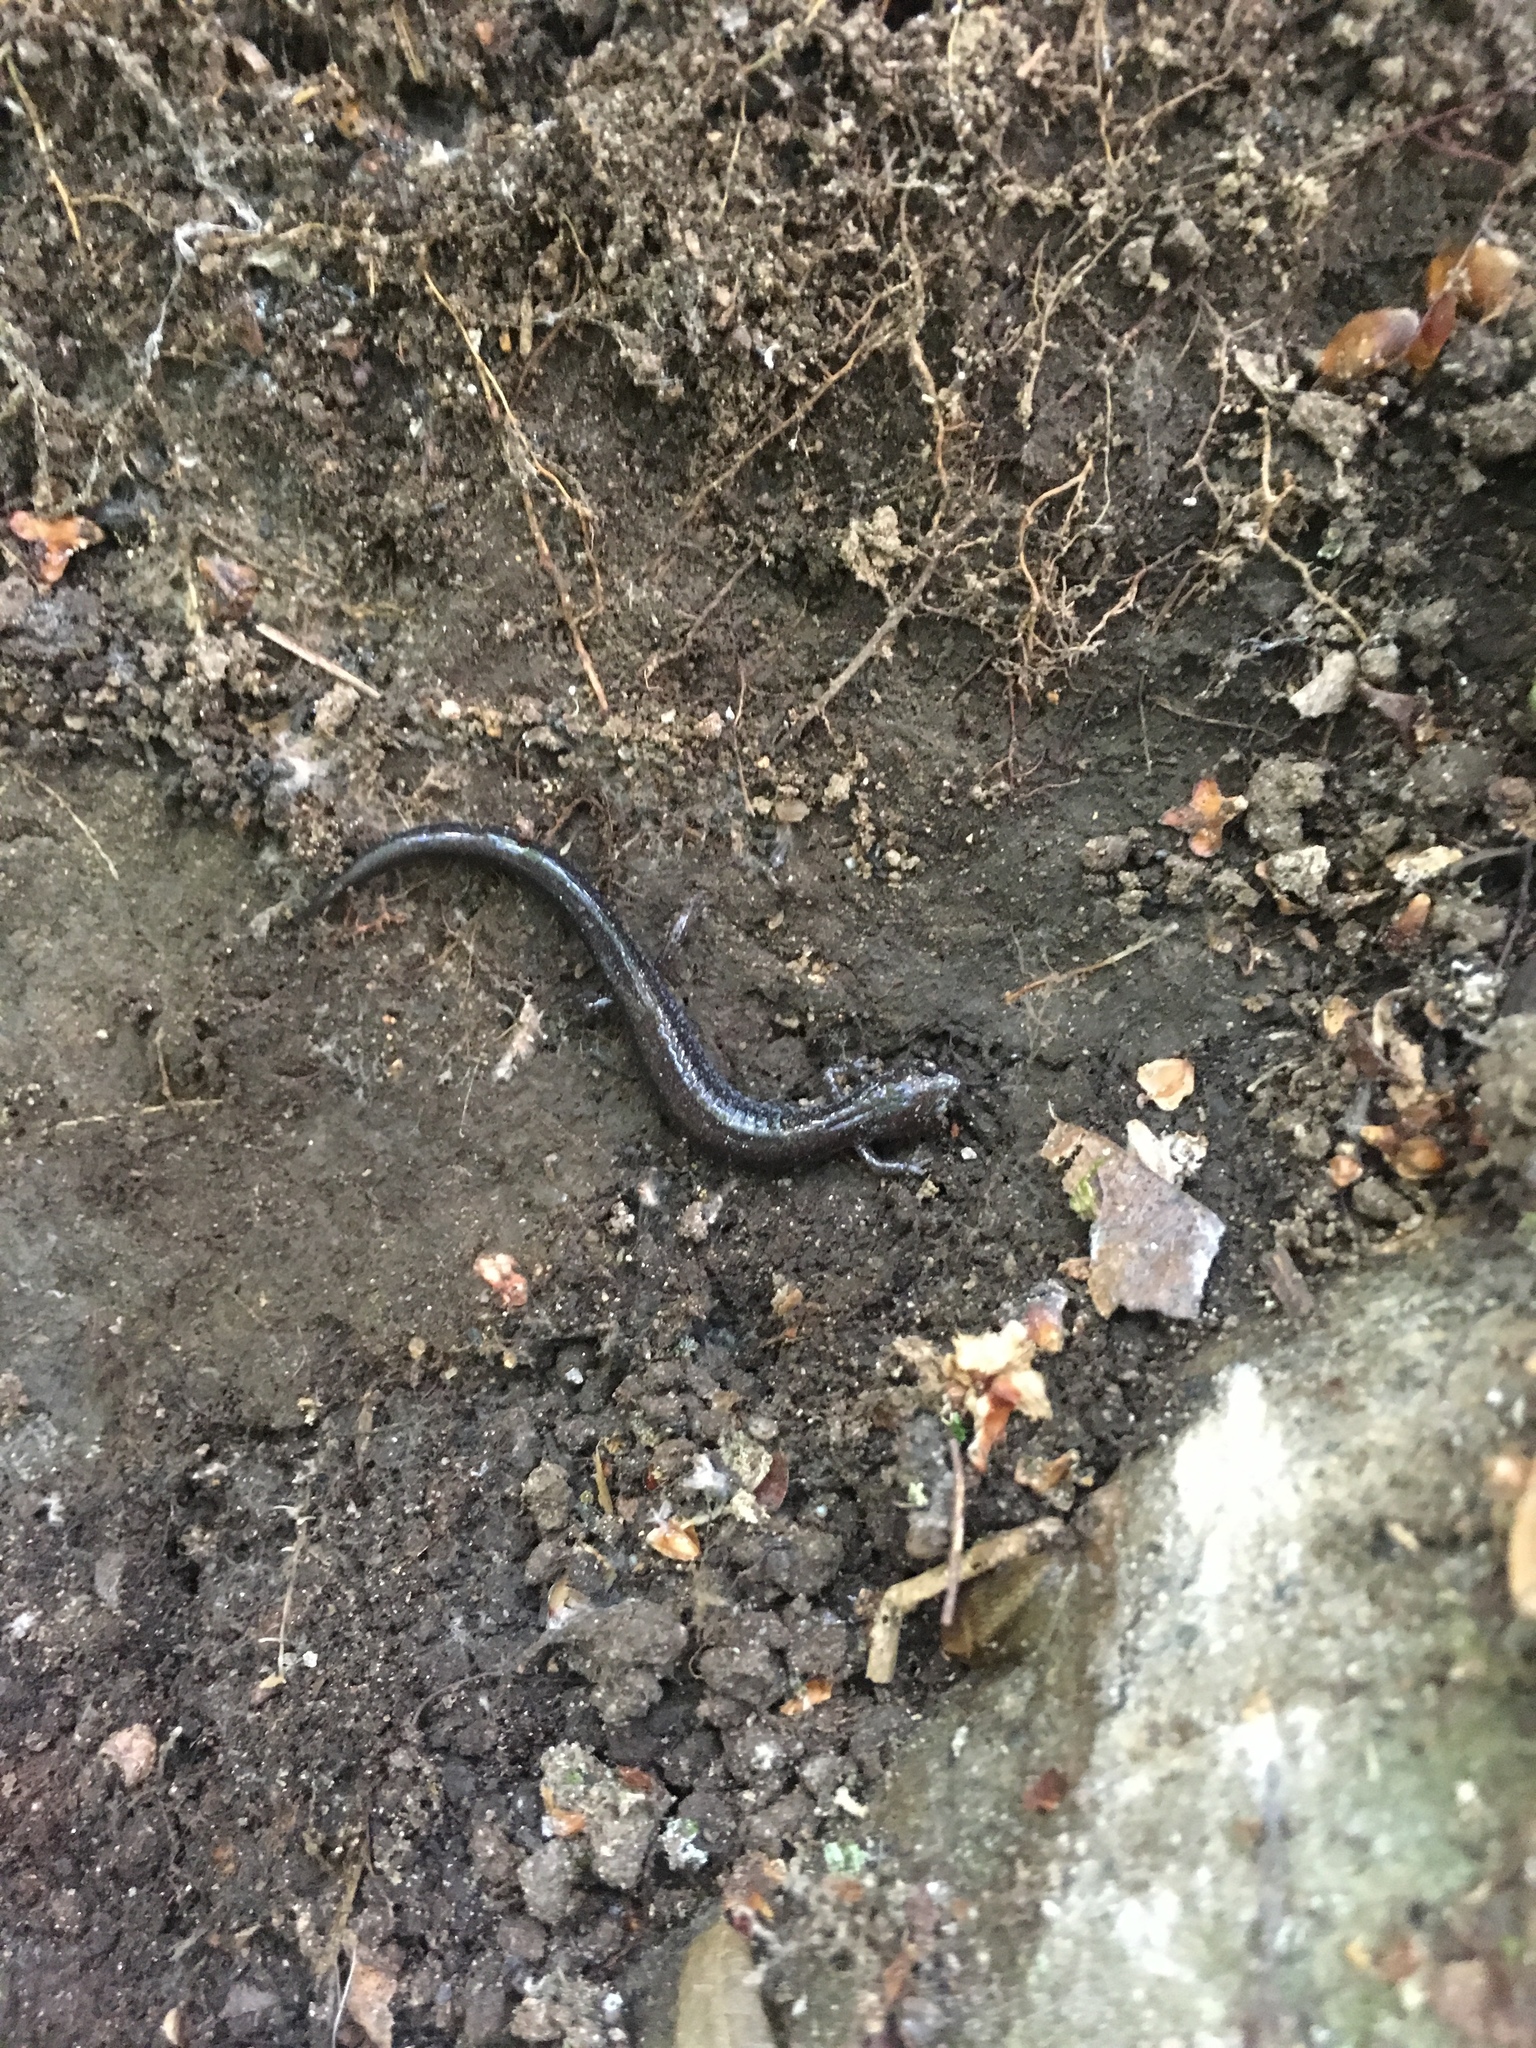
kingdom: Animalia
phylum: Chordata
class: Amphibia
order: Caudata
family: Plethodontidae
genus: Plethodon
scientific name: Plethodon cinereus
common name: Redback salamander
